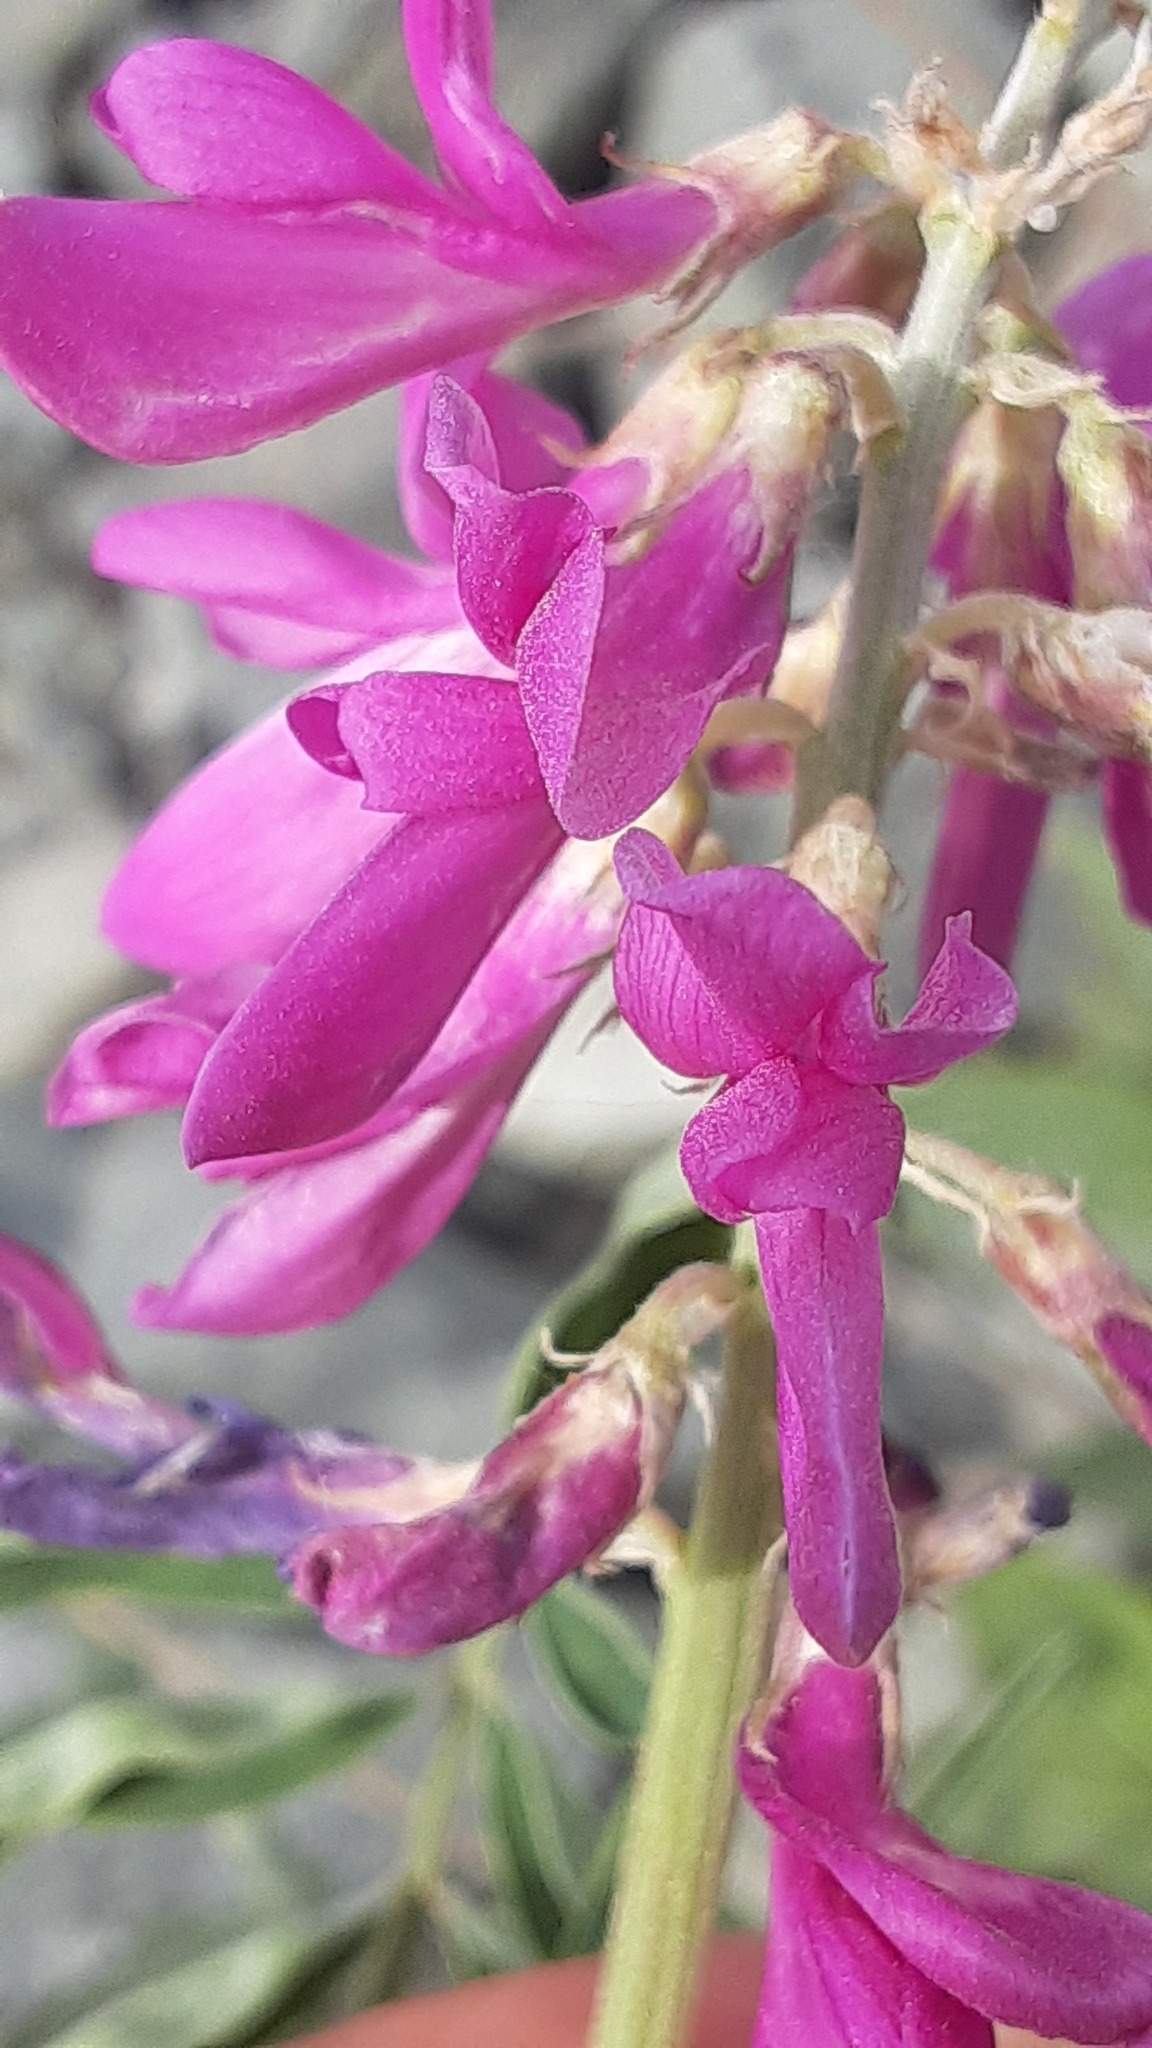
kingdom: Plantae
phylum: Tracheophyta
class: Magnoliopsida
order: Fabales
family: Fabaceae
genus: Hedysarum
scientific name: Hedysarum boreale
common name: Northern sweet-vetch
